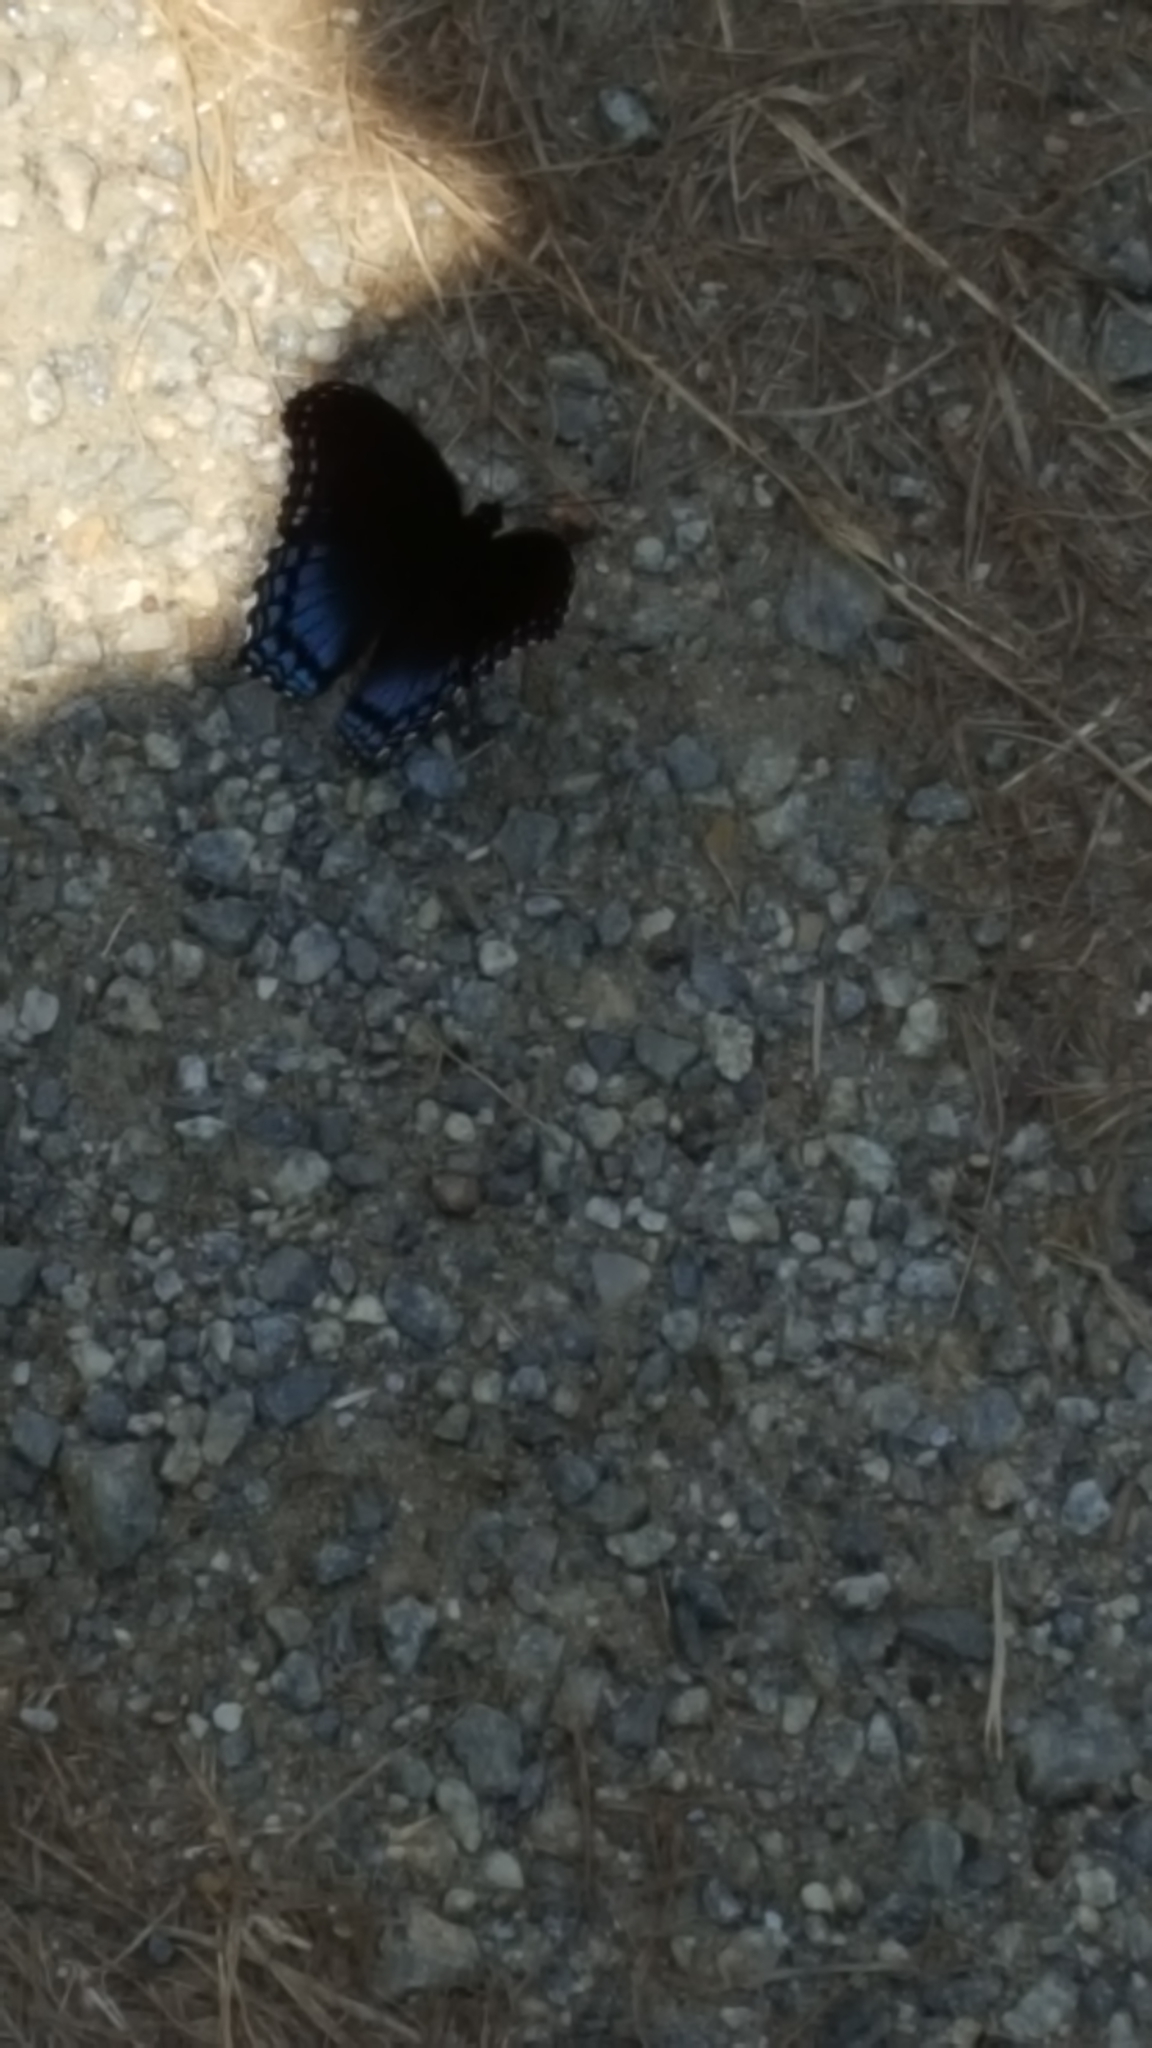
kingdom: Animalia
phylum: Arthropoda
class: Insecta
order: Lepidoptera
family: Nymphalidae
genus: Limenitis
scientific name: Limenitis astyanax
